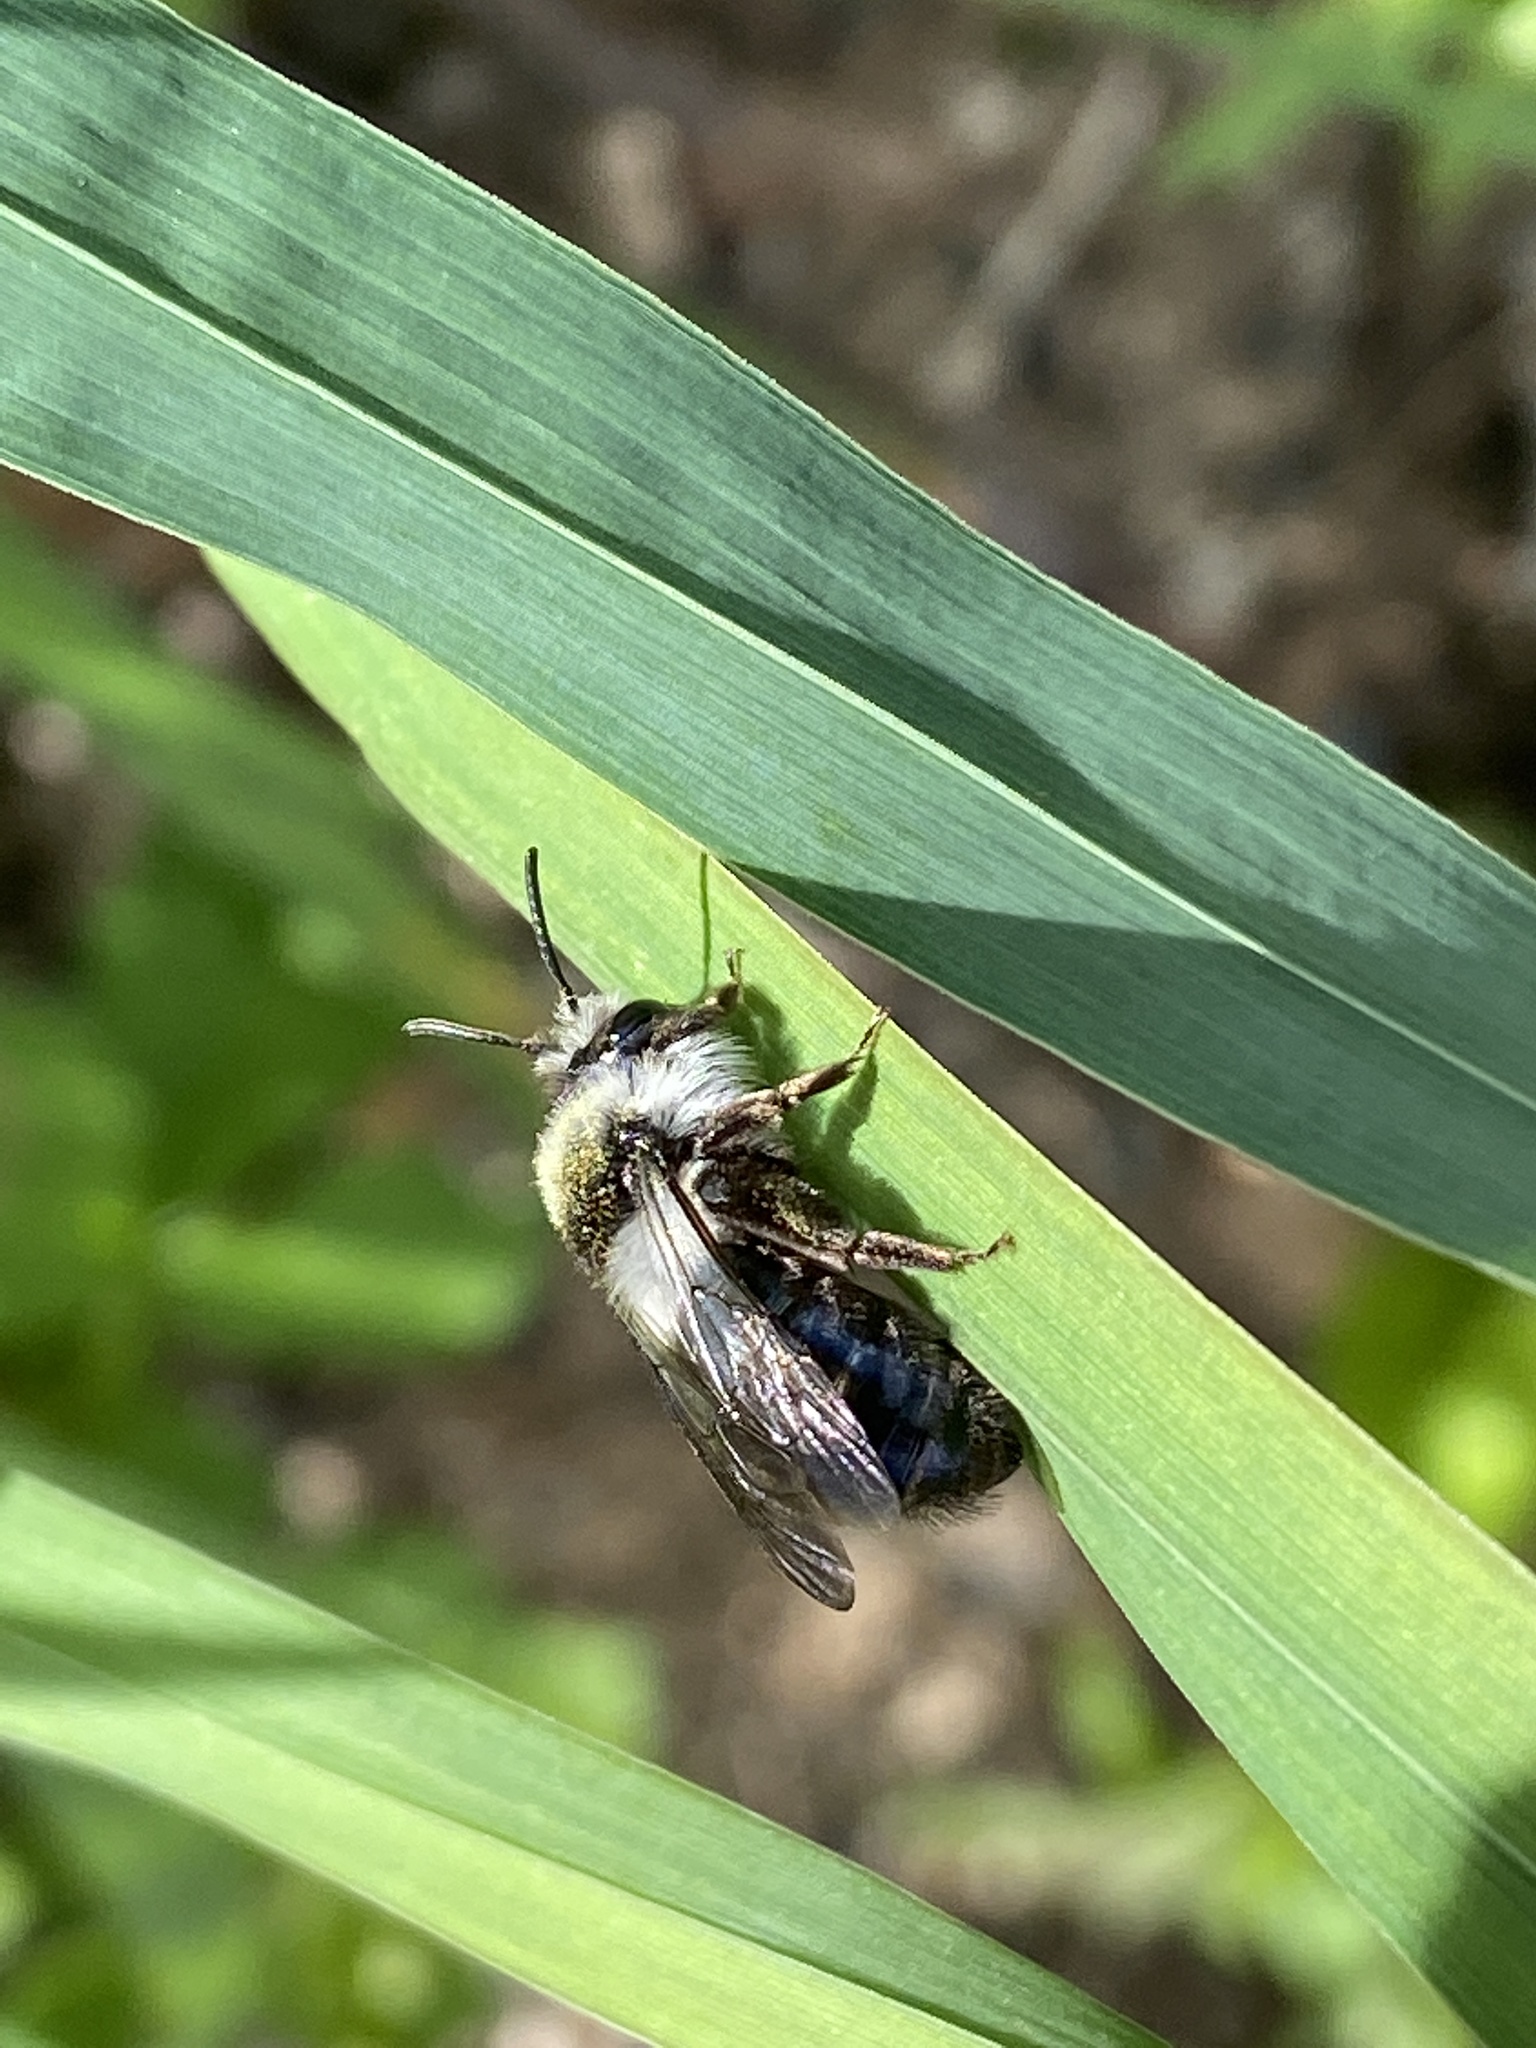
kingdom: Animalia
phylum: Arthropoda
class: Insecta
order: Hymenoptera
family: Andrenidae
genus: Andrena
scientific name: Andrena cineraria
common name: Ashy mining bee
